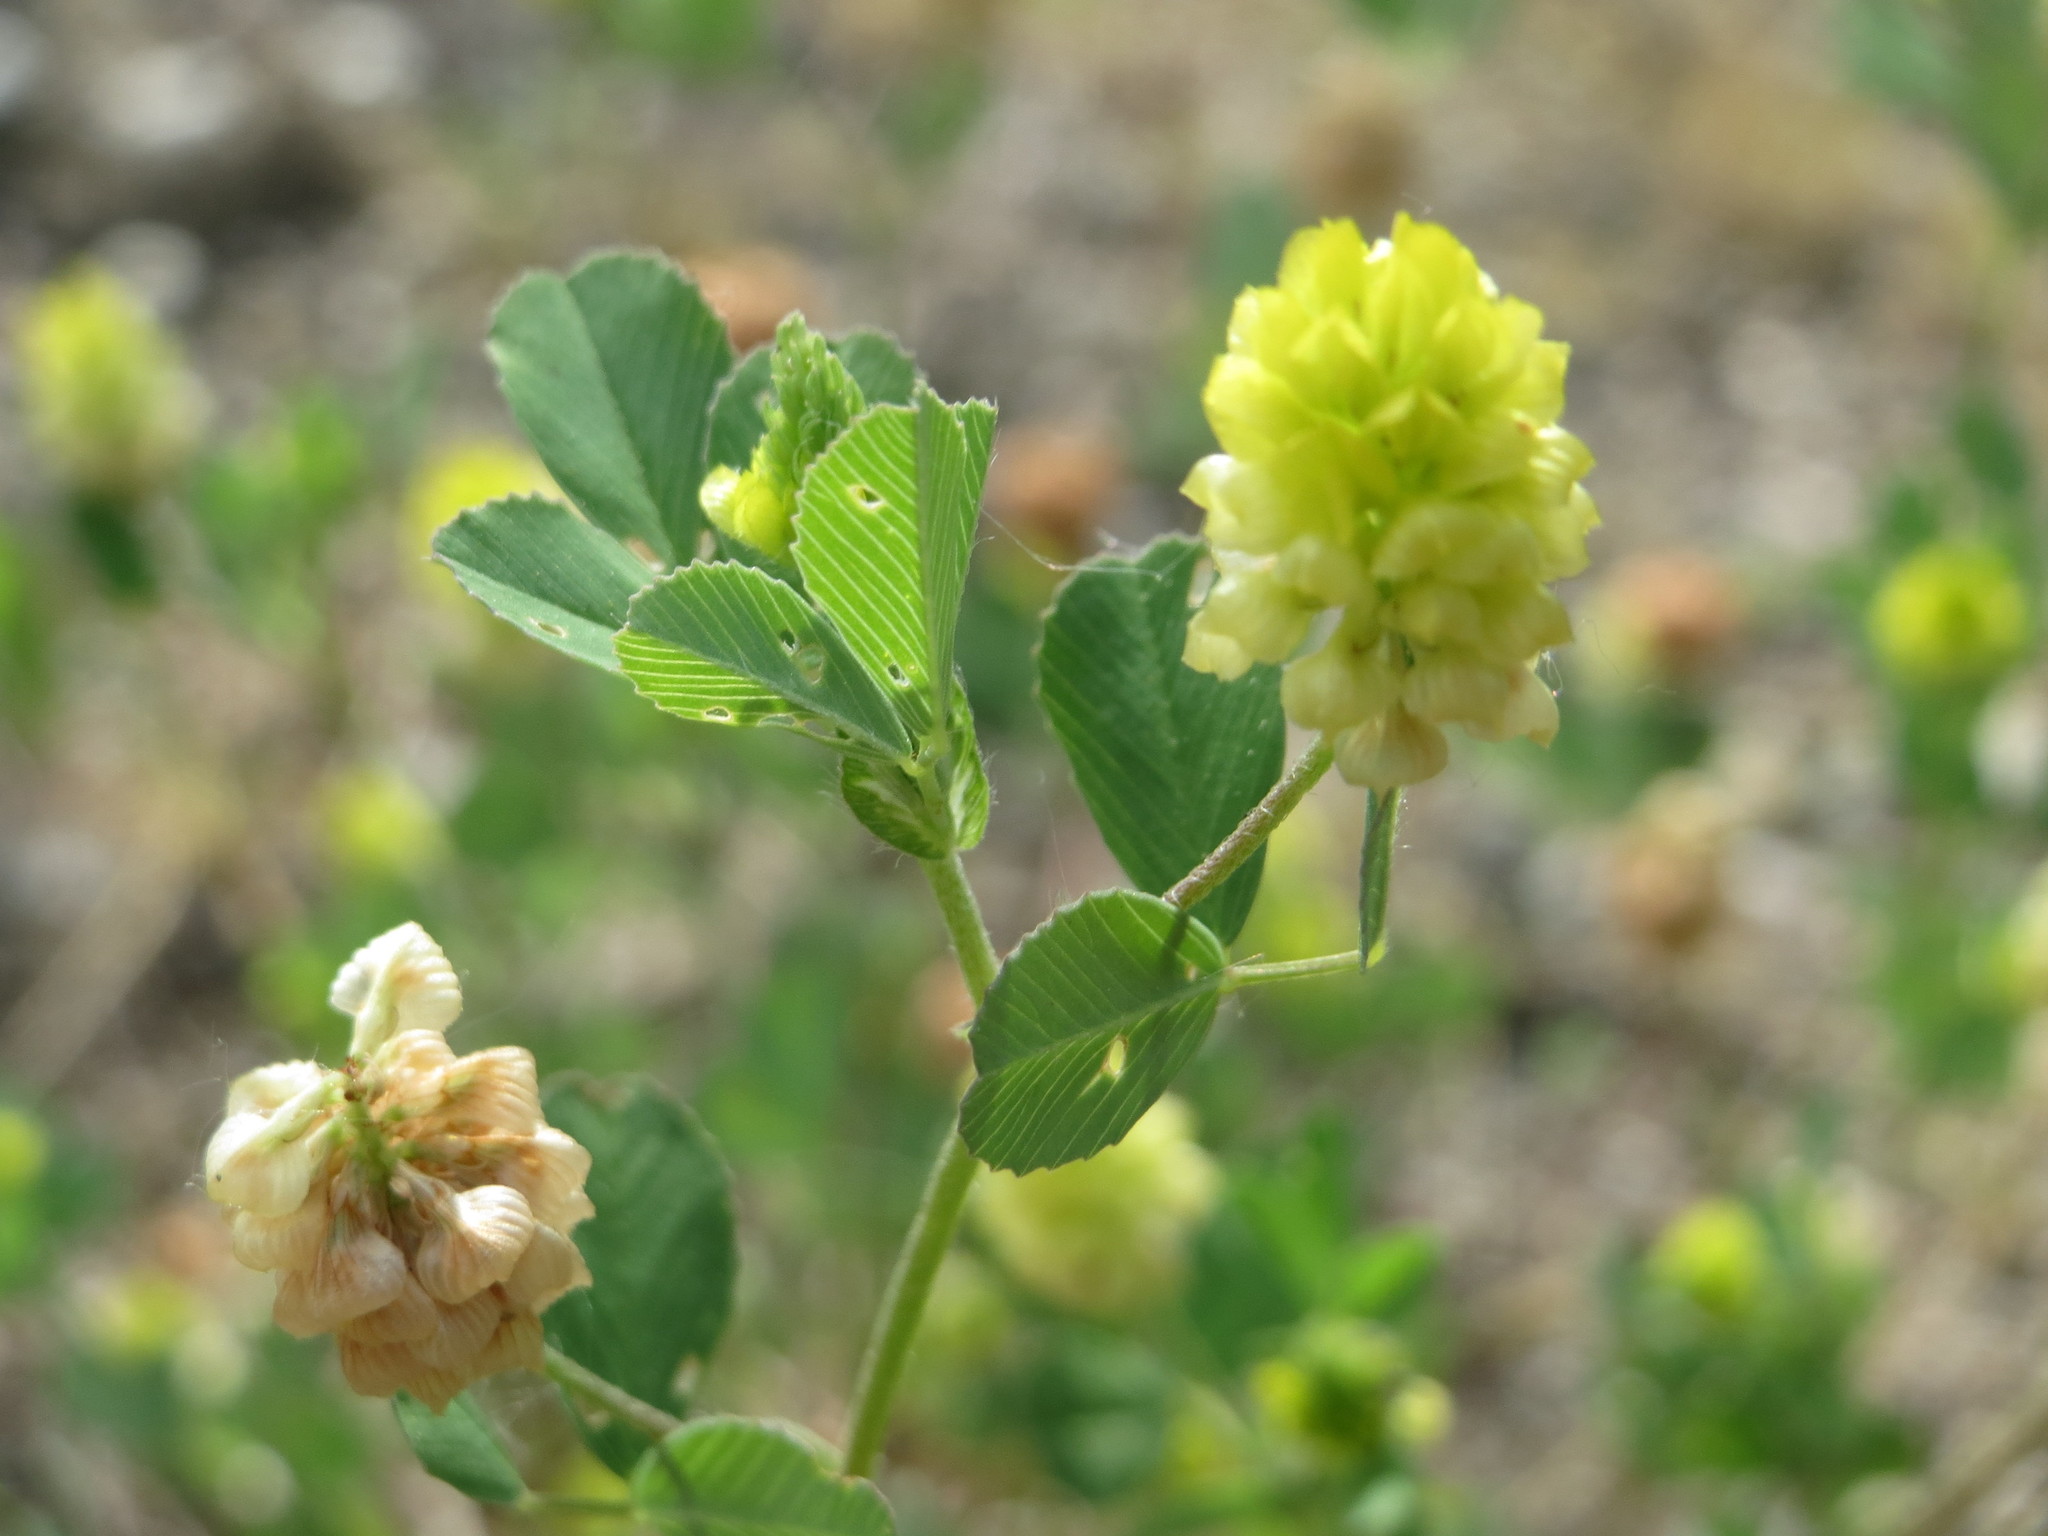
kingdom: Plantae
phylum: Tracheophyta
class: Magnoliopsida
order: Fabales
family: Fabaceae
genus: Trifolium
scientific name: Trifolium campestre
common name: Field clover
